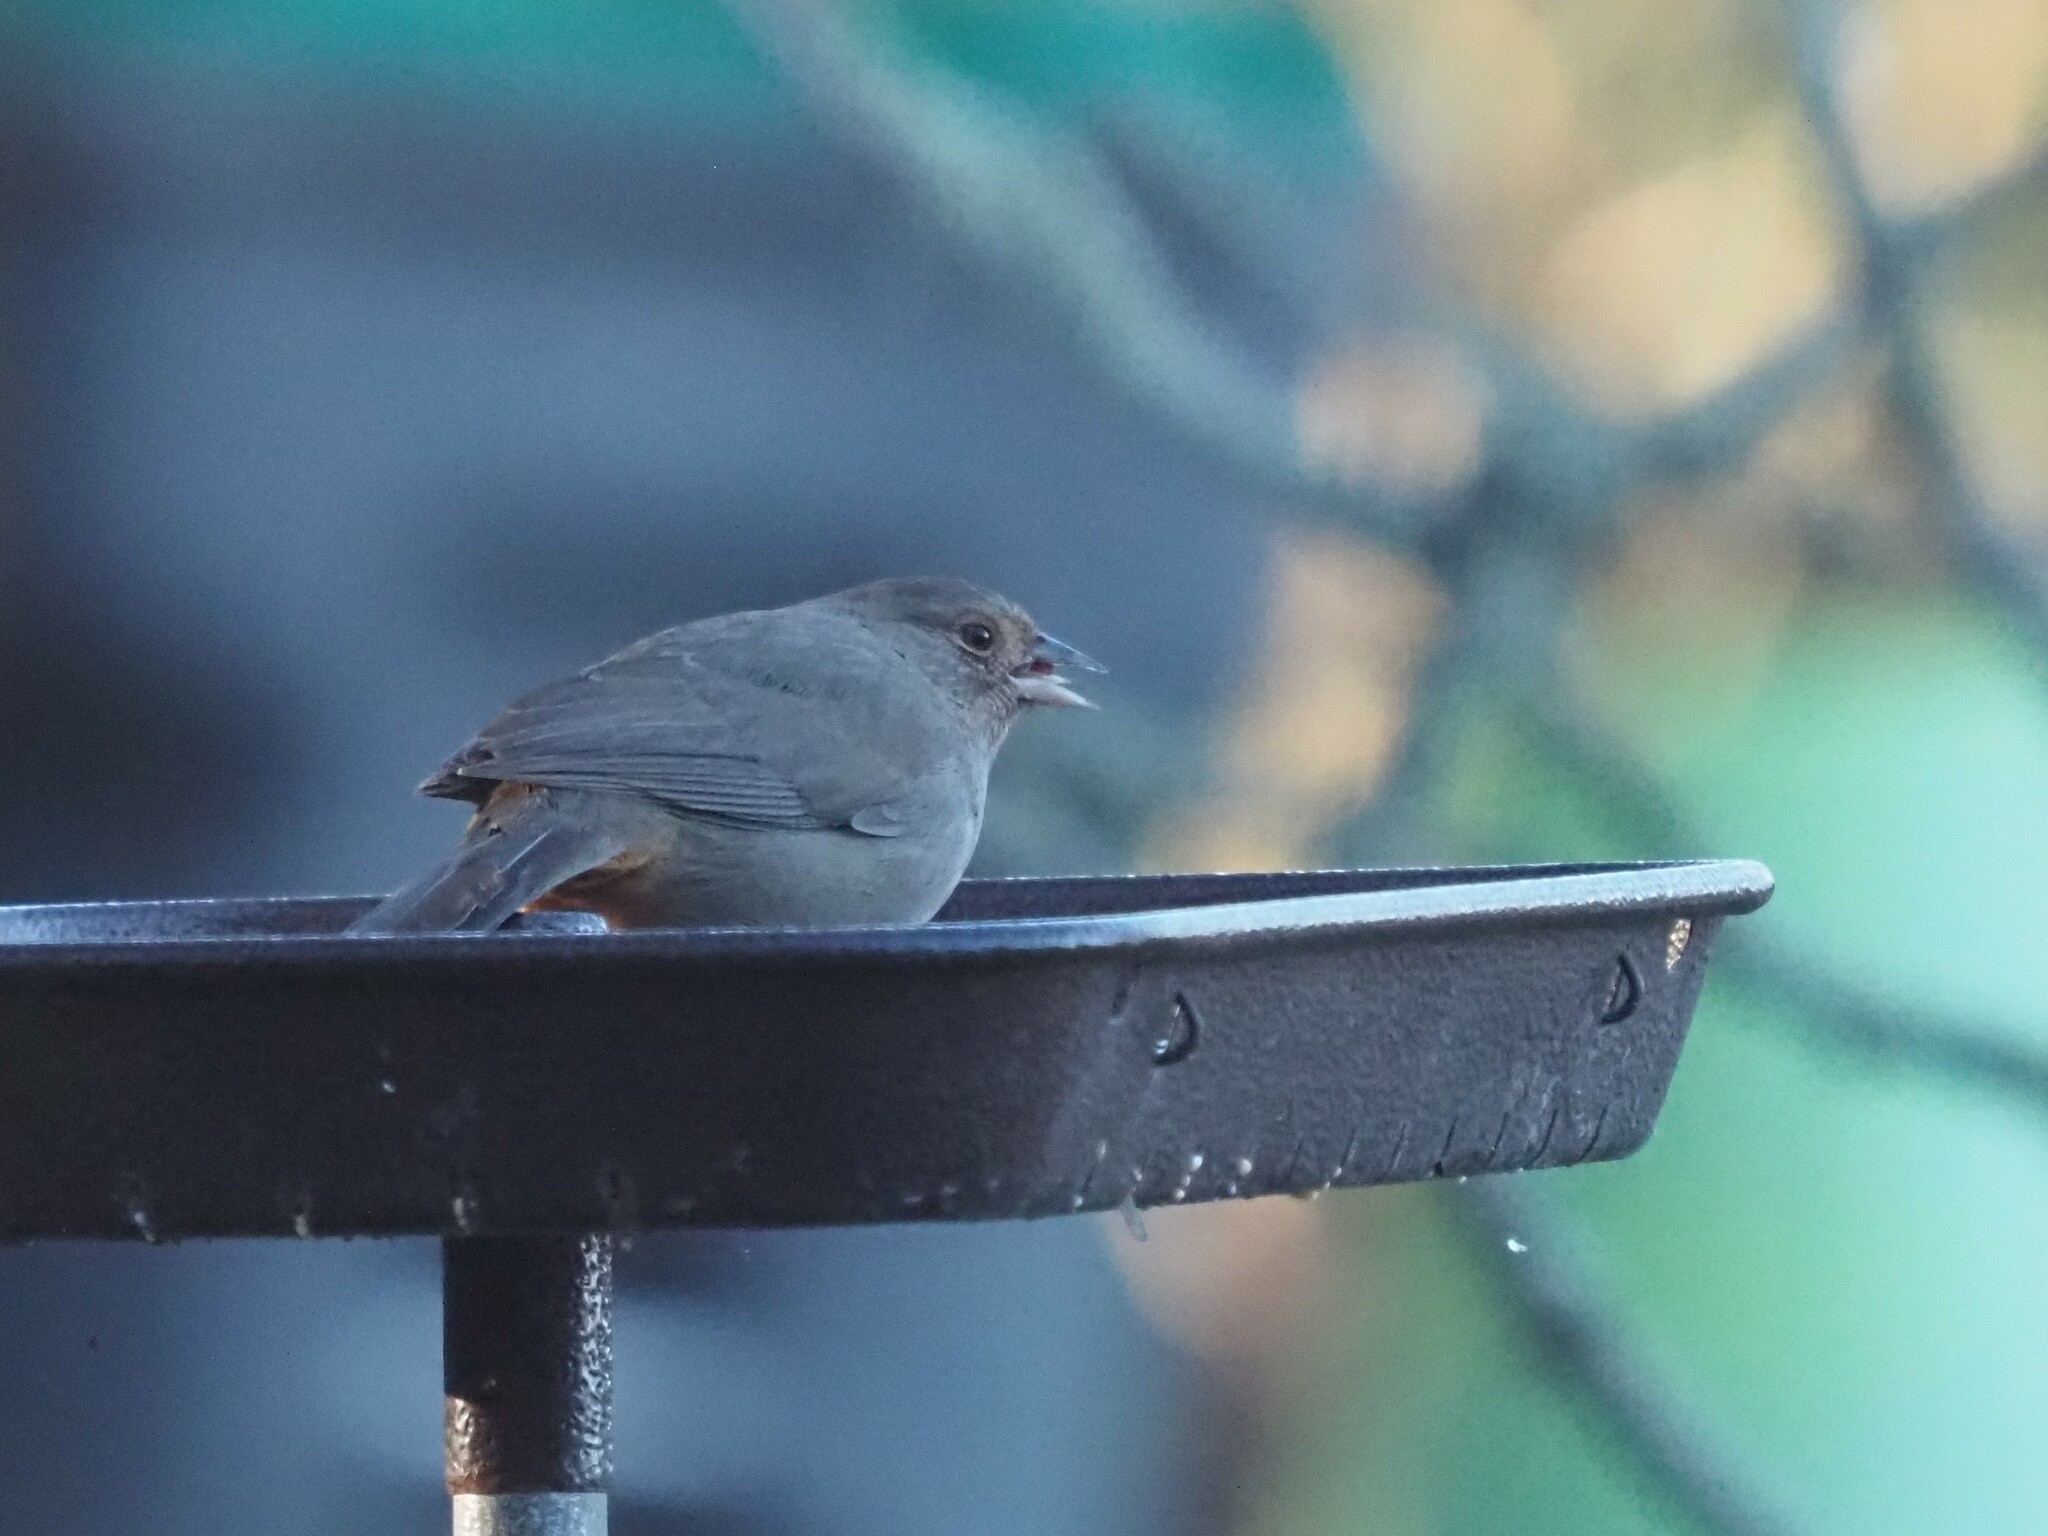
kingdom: Animalia
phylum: Chordata
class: Aves
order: Passeriformes
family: Passerellidae
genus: Melozone
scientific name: Melozone crissalis
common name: California towhee
